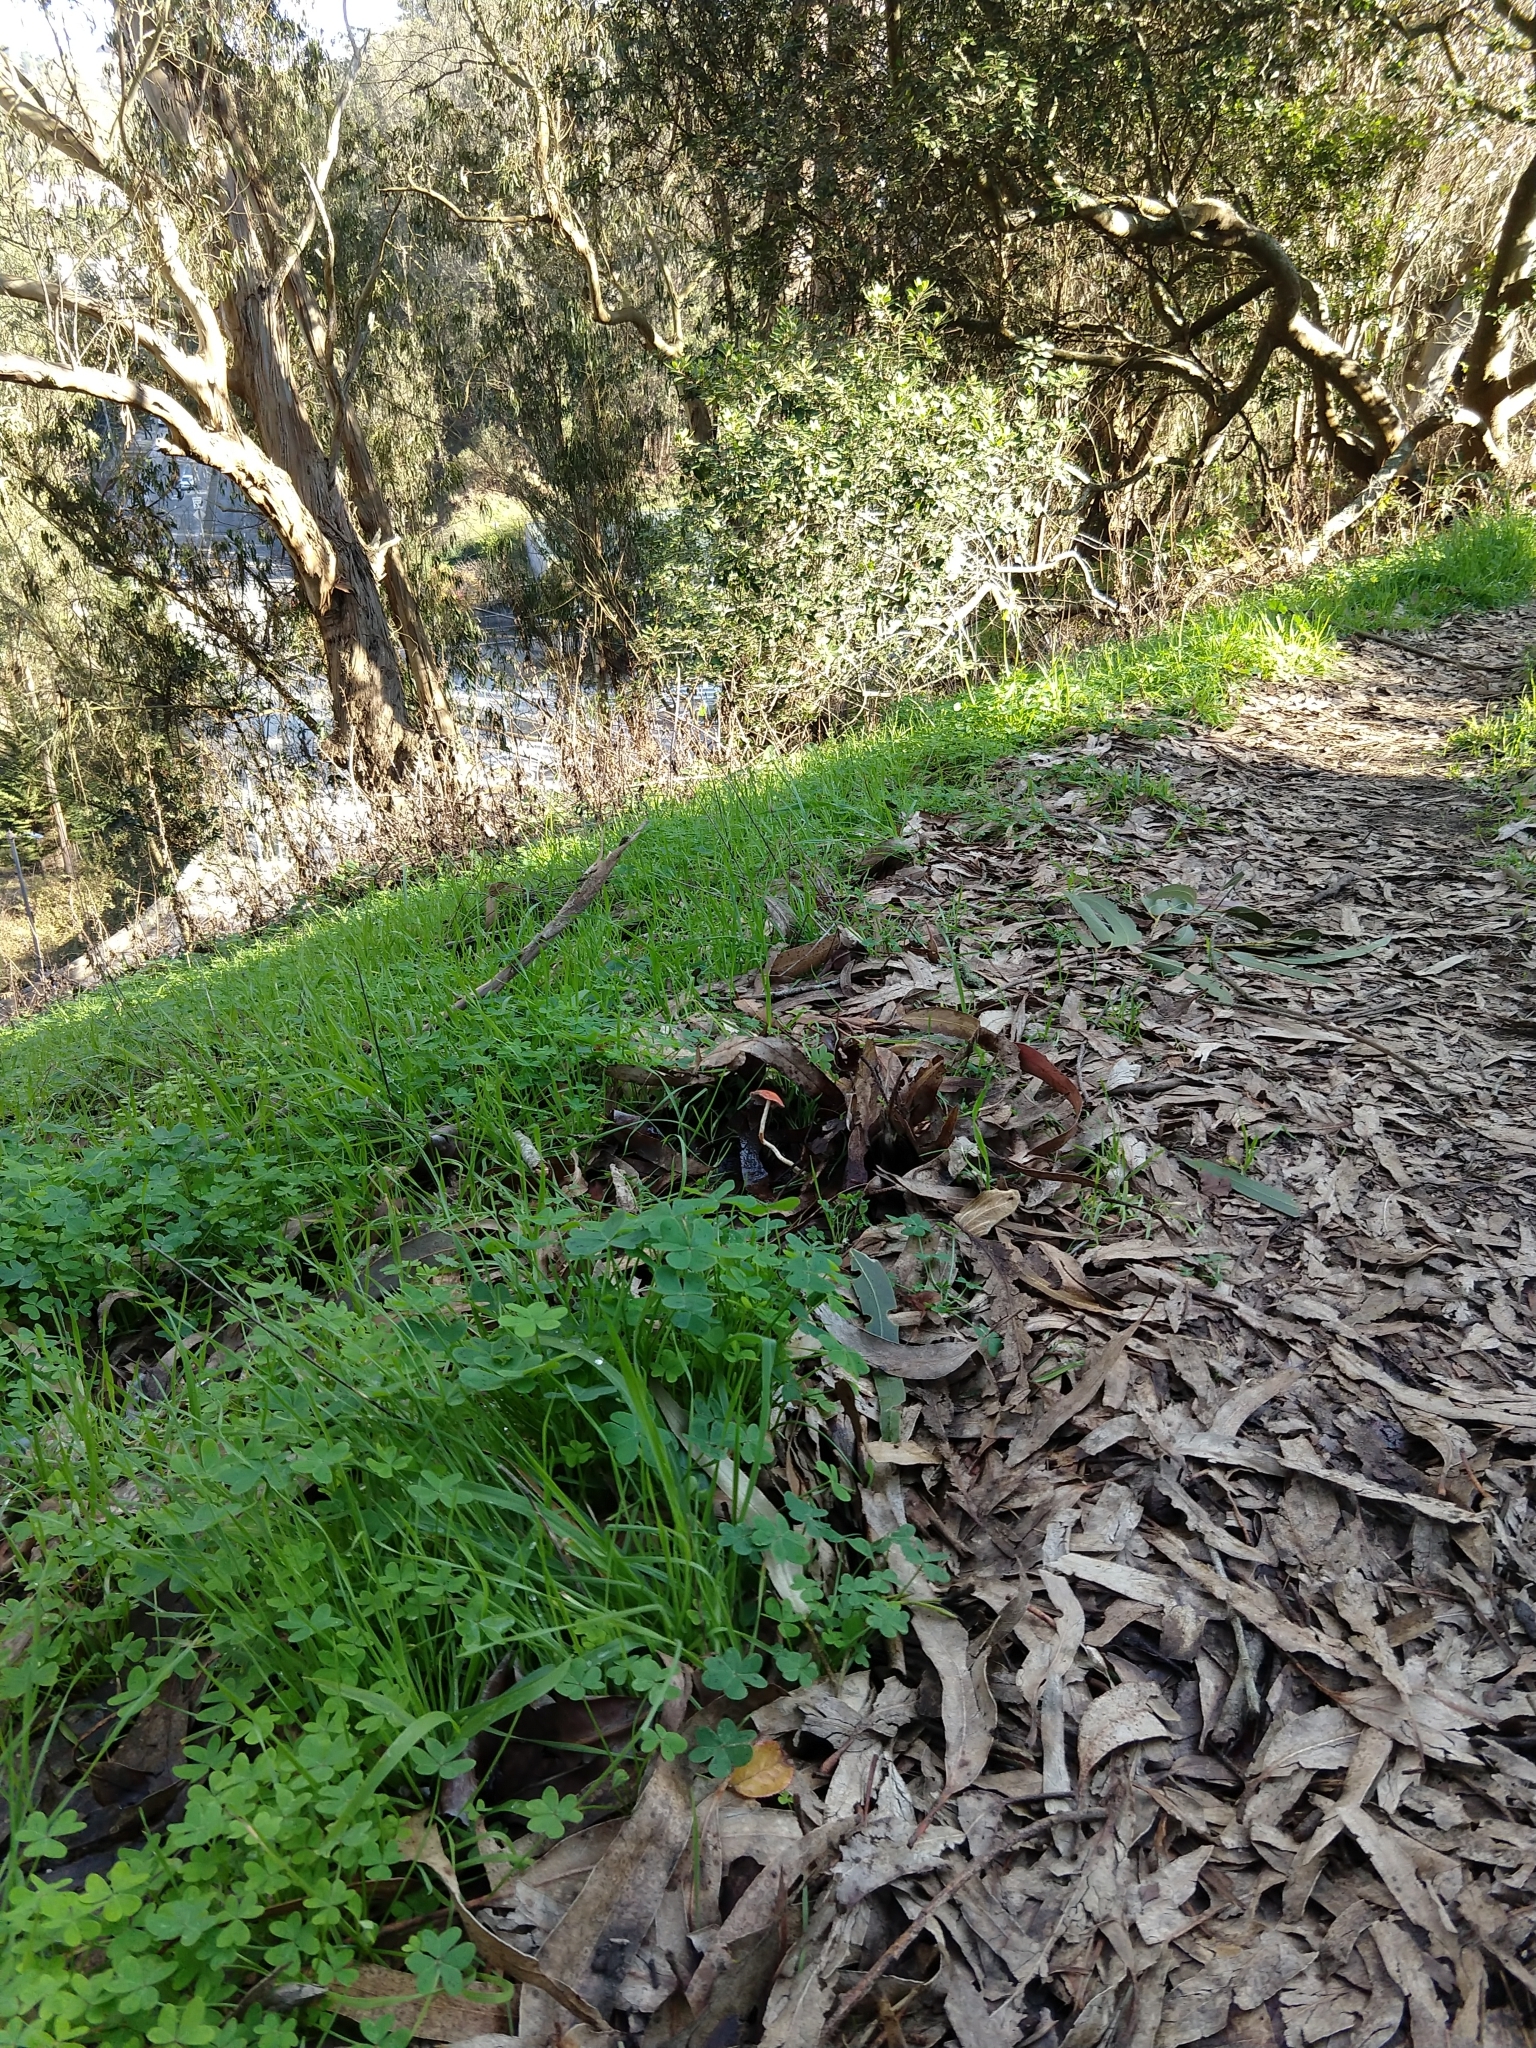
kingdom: Fungi
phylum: Basidiomycota
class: Agaricomycetes
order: Agaricales
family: Strophariaceae
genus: Leratiomyces
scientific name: Leratiomyces ceres
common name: Redlead roundhead
